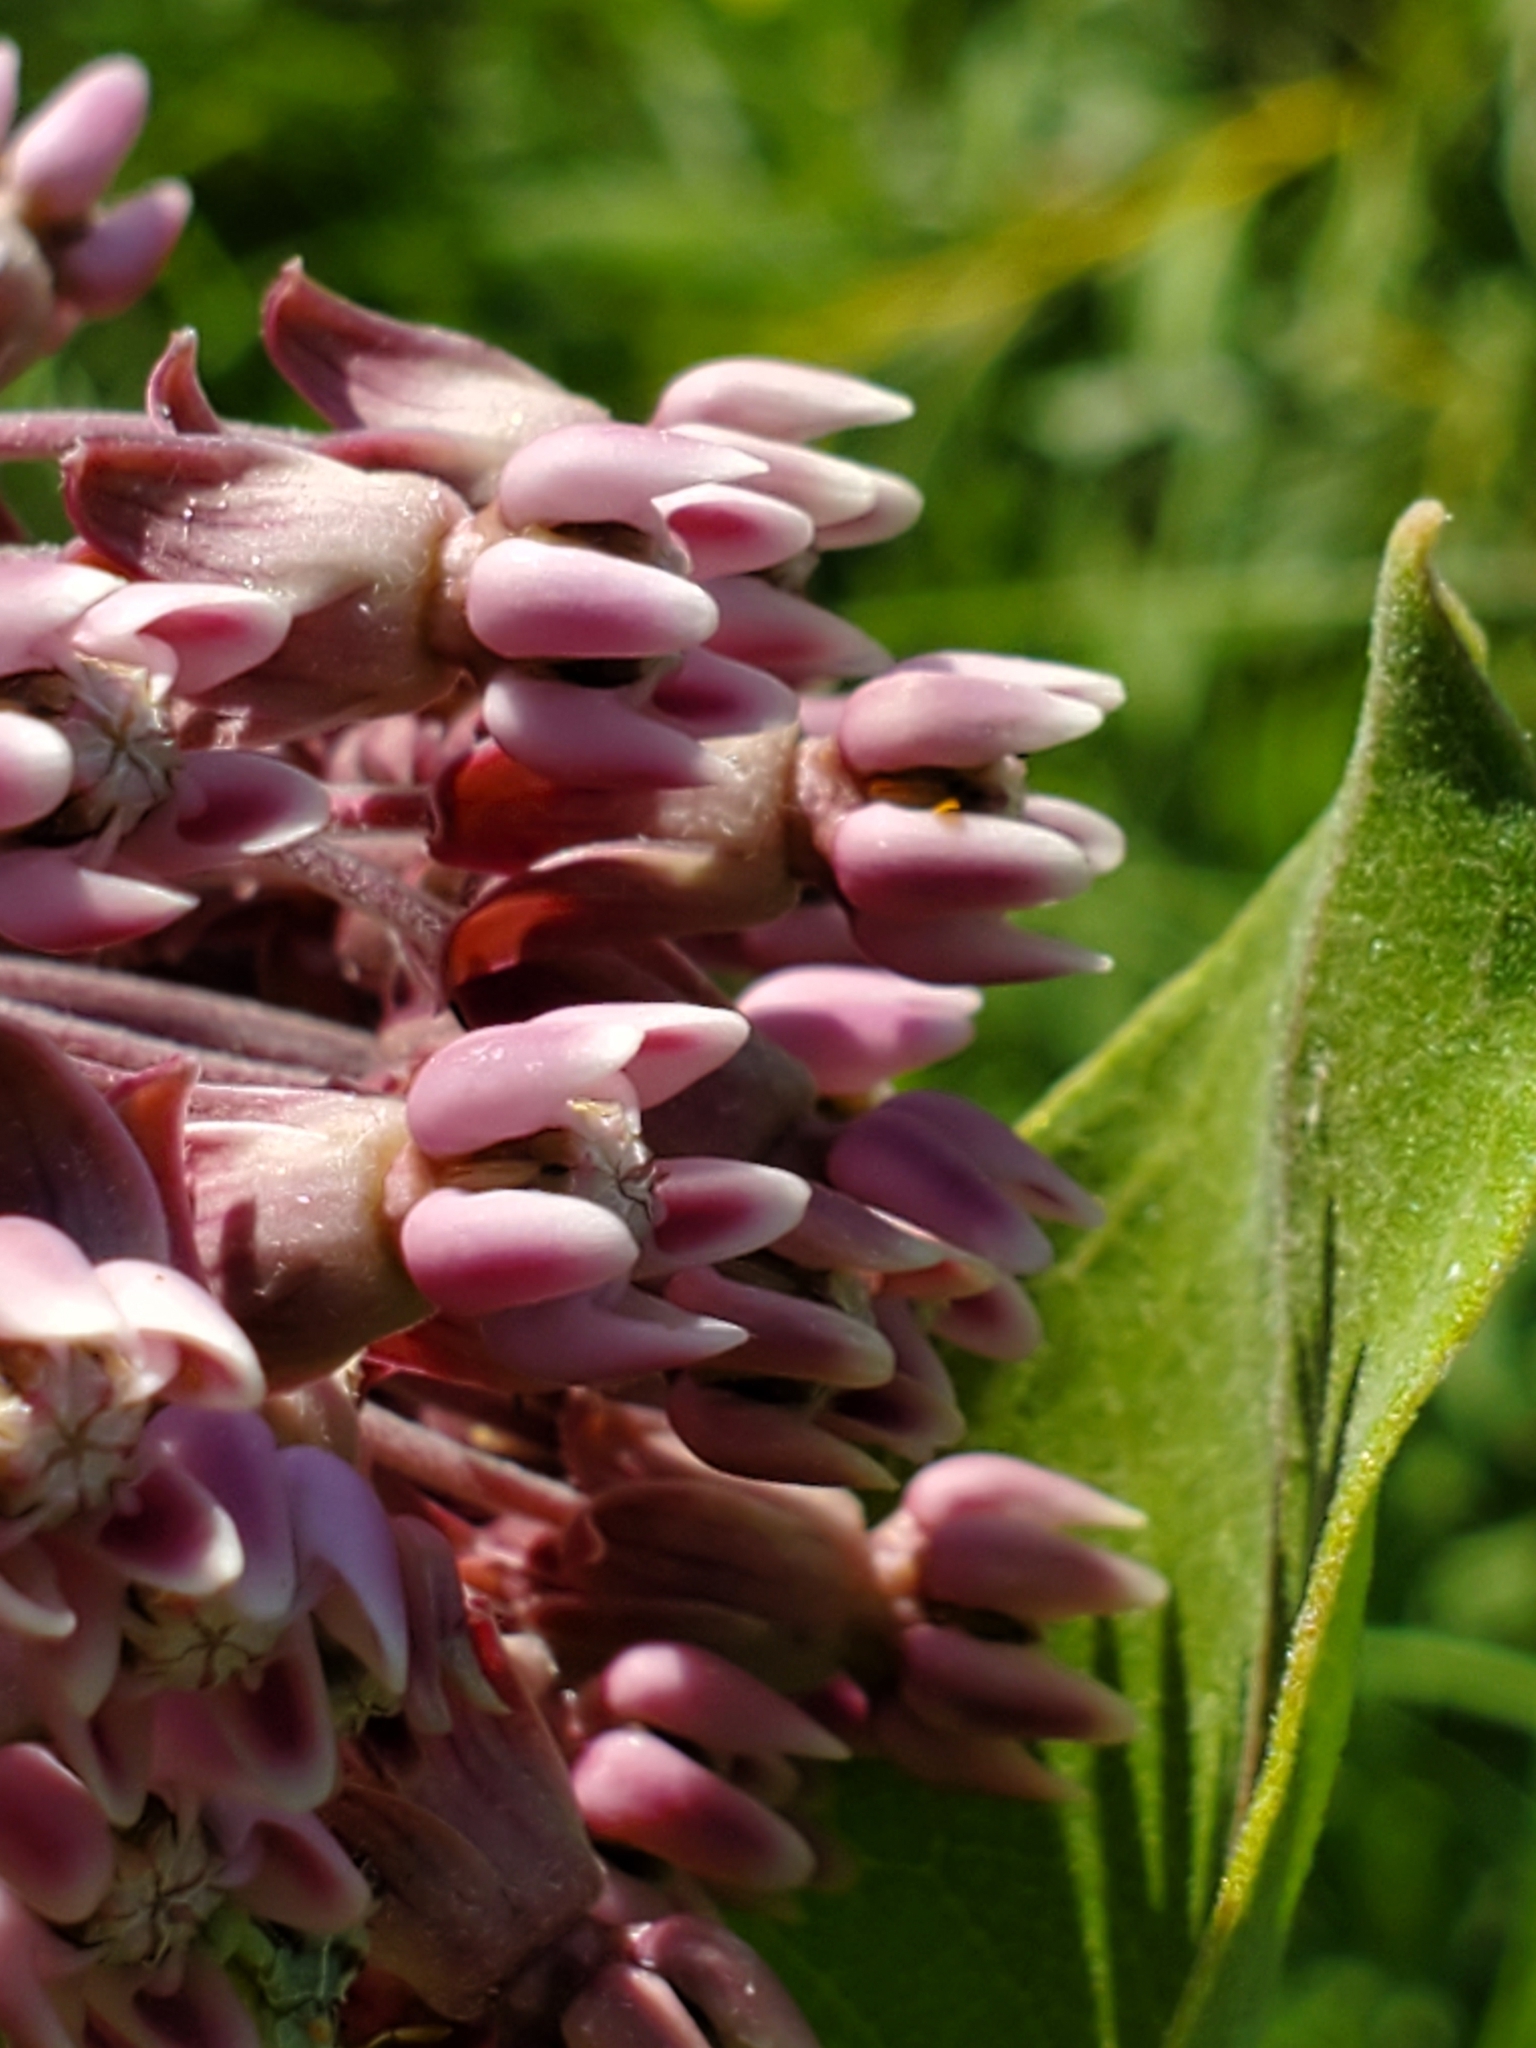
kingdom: Plantae
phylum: Tracheophyta
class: Magnoliopsida
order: Gentianales
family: Apocynaceae
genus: Asclepias
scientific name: Asclepias syriaca
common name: Common milkweed
